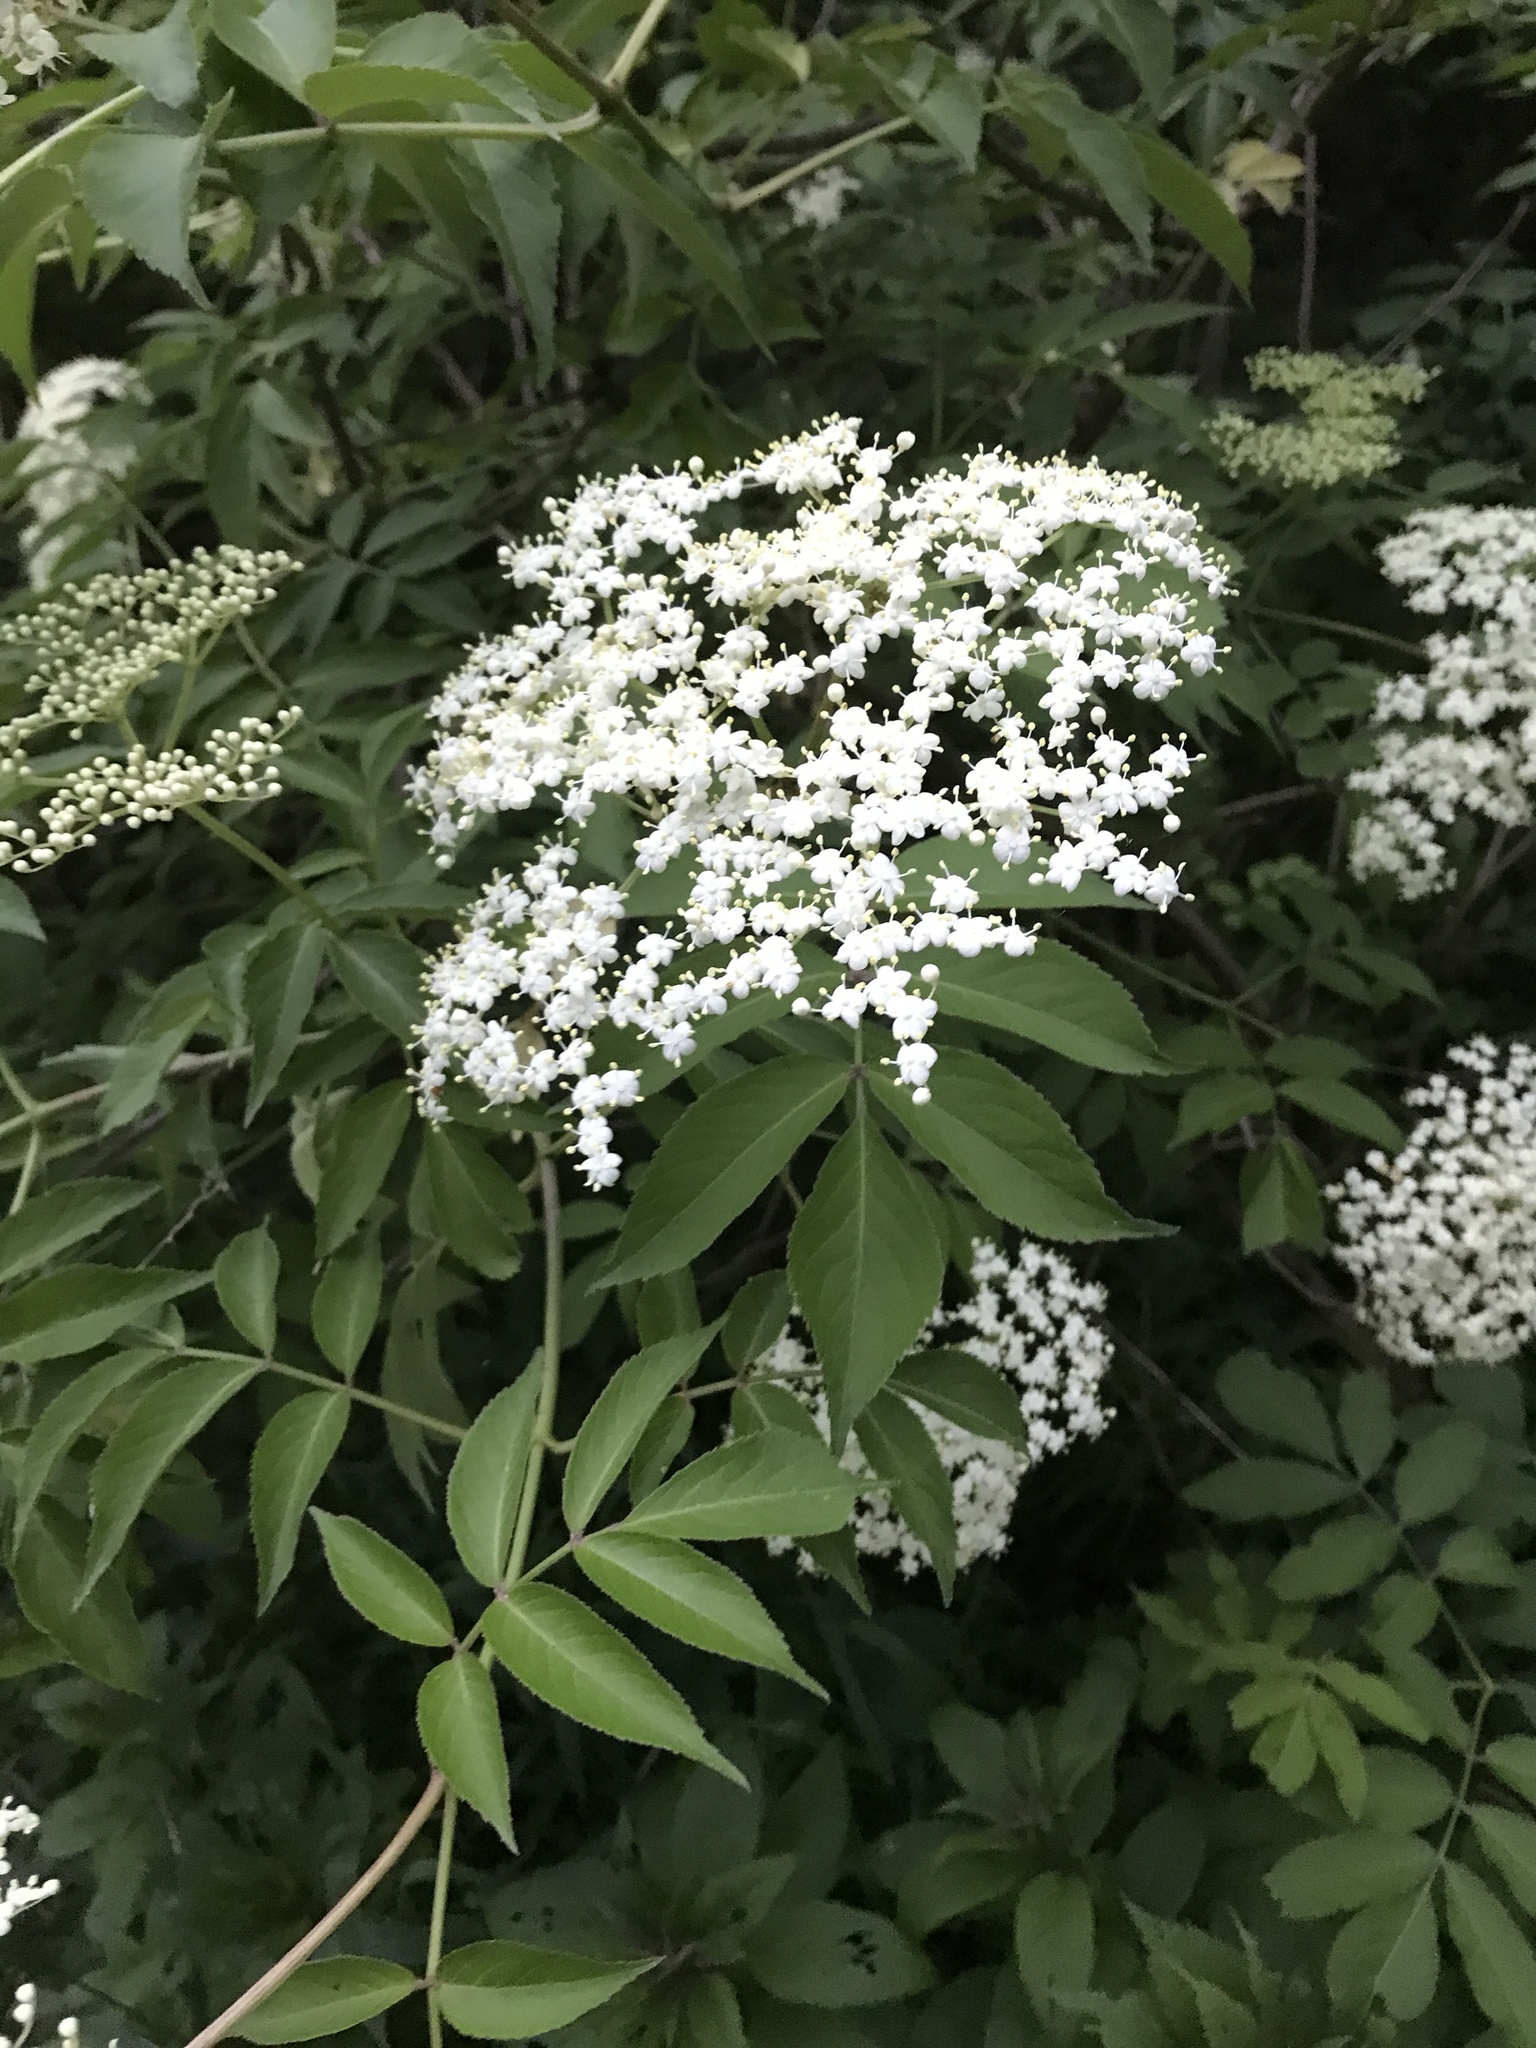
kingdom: Plantae
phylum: Tracheophyta
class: Magnoliopsida
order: Dipsacales
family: Viburnaceae
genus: Sambucus
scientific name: Sambucus canadensis
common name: American elder
